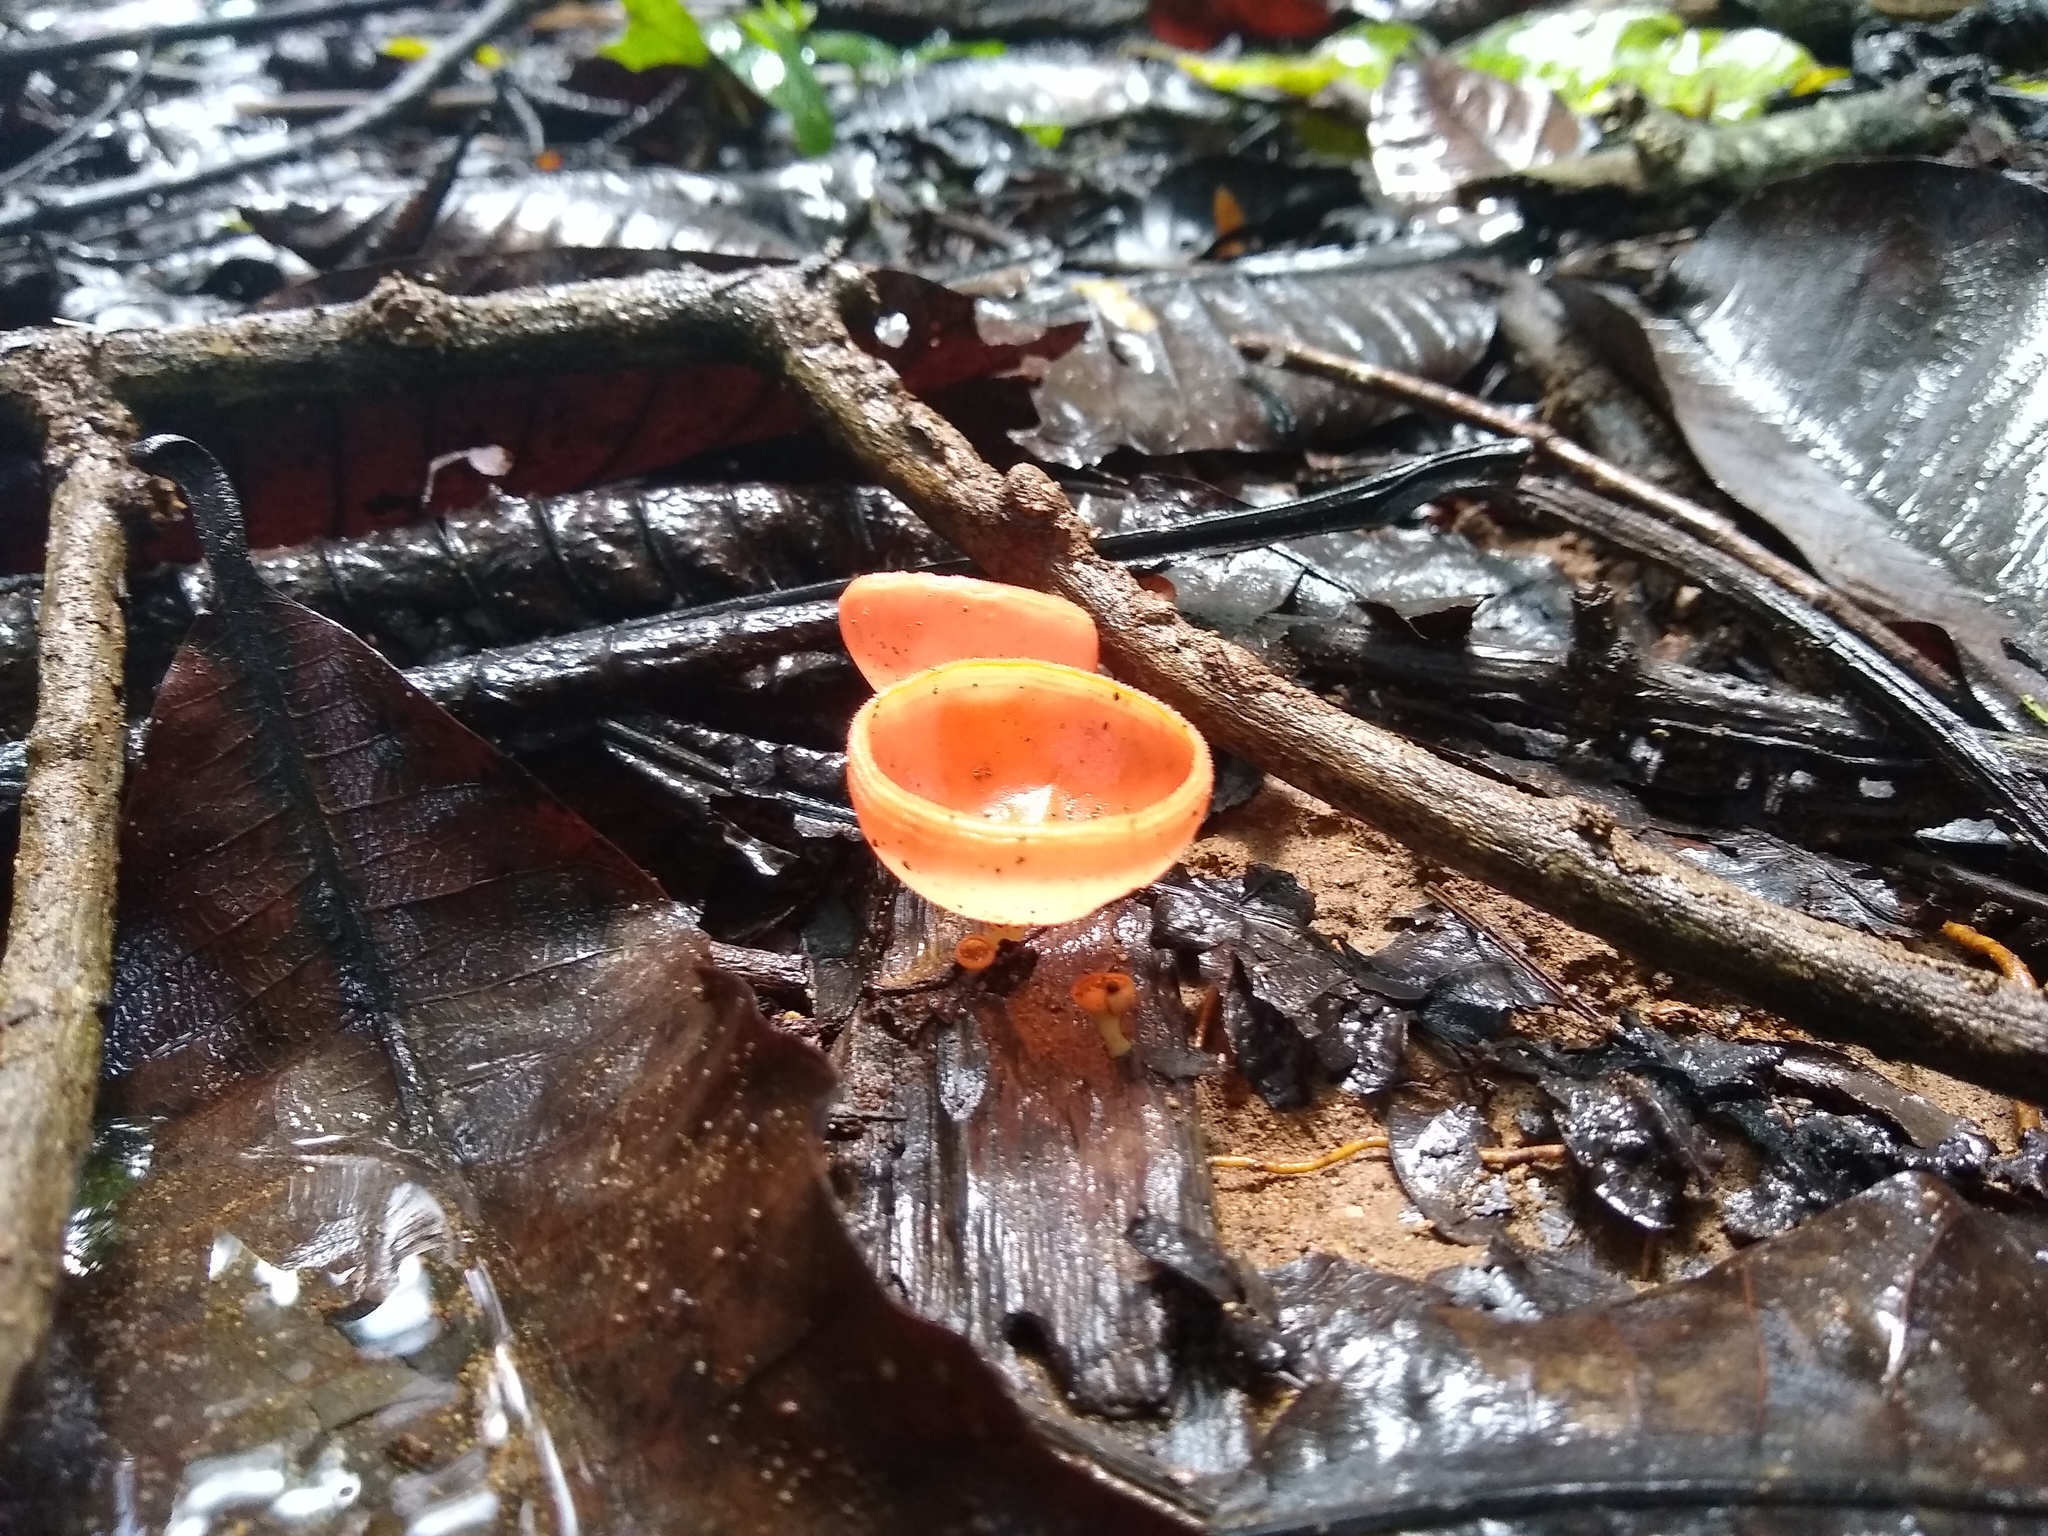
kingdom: Fungi
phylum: Ascomycota
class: Pezizomycetes
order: Pezizales
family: Sarcoscyphaceae
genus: Cookeina
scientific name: Cookeina speciosa
